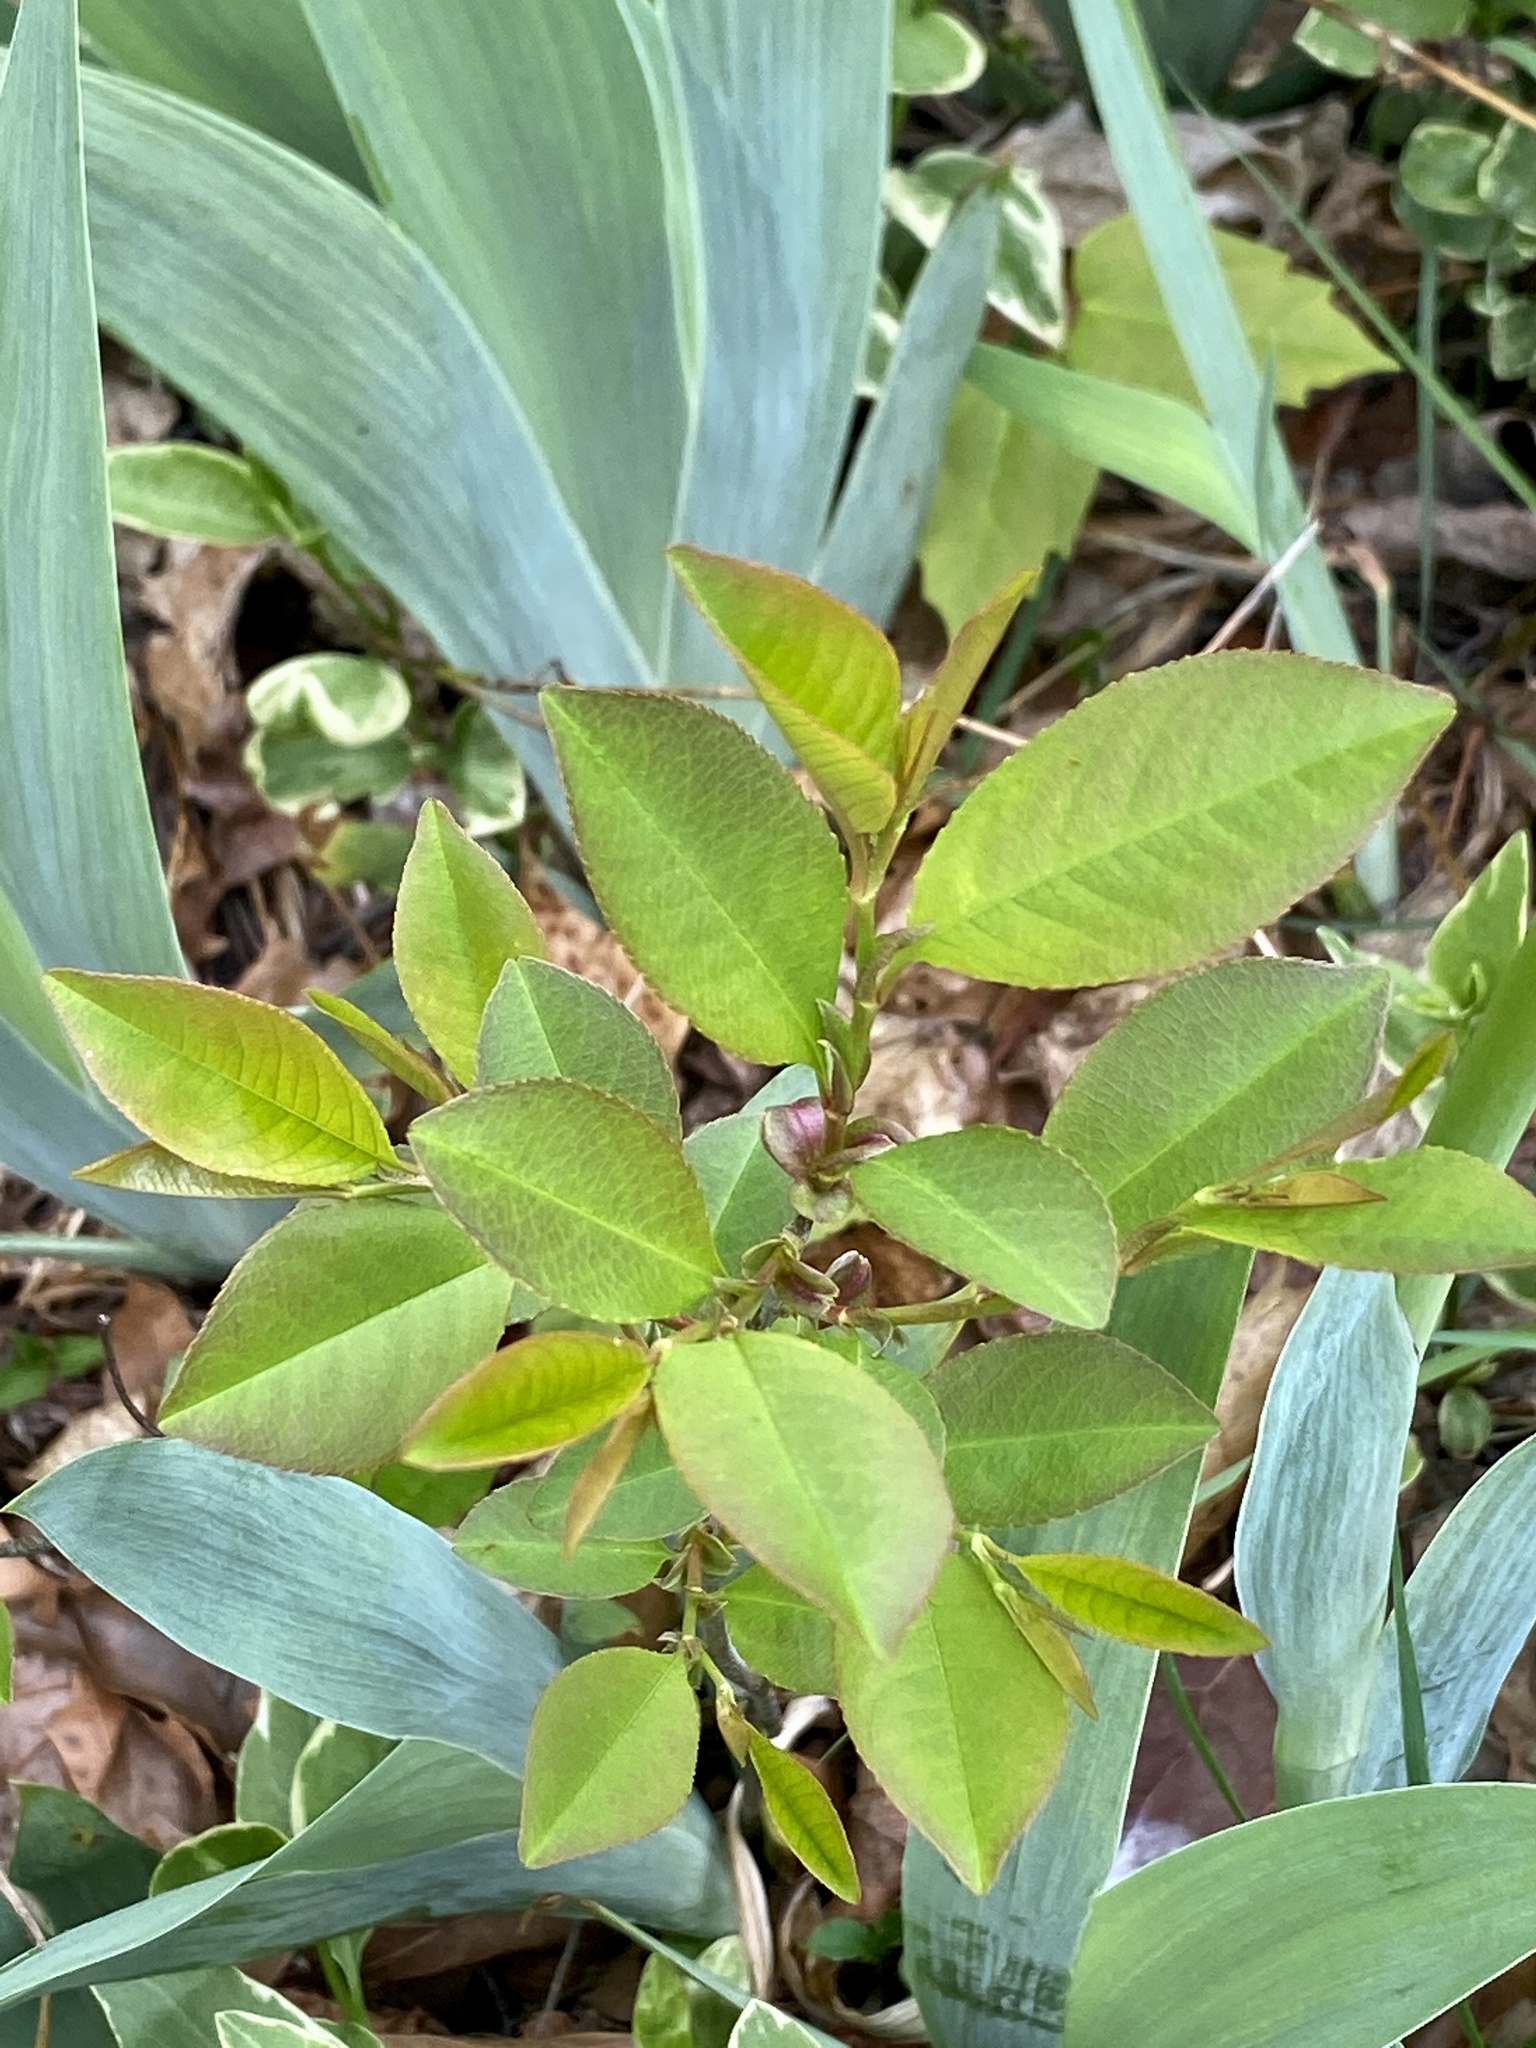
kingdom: Plantae
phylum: Tracheophyta
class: Magnoliopsida
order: Rosales
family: Rosaceae
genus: Prunus
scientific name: Prunus serotina
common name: Black cherry
